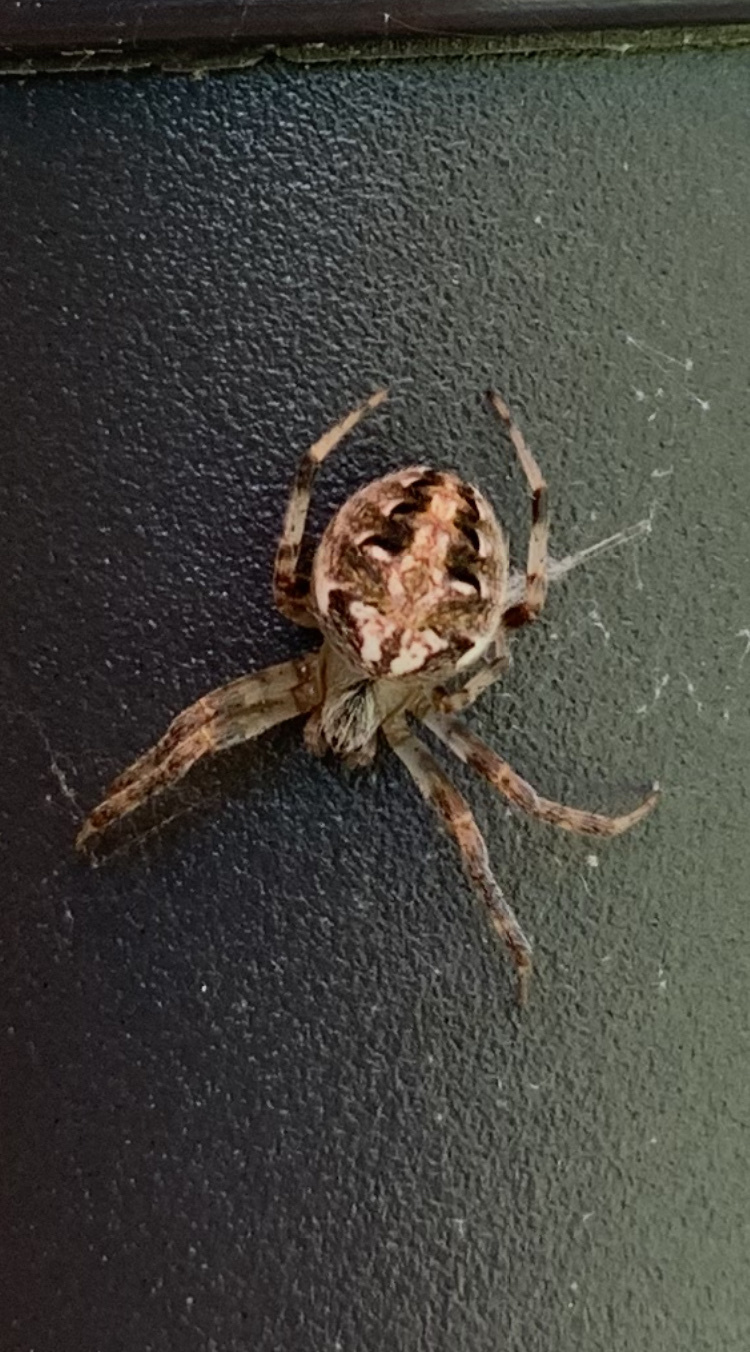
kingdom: Animalia
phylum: Arthropoda
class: Arachnida
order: Araneae
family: Araneidae
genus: Neoscona
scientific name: Neoscona arabesca
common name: Orb weavers
